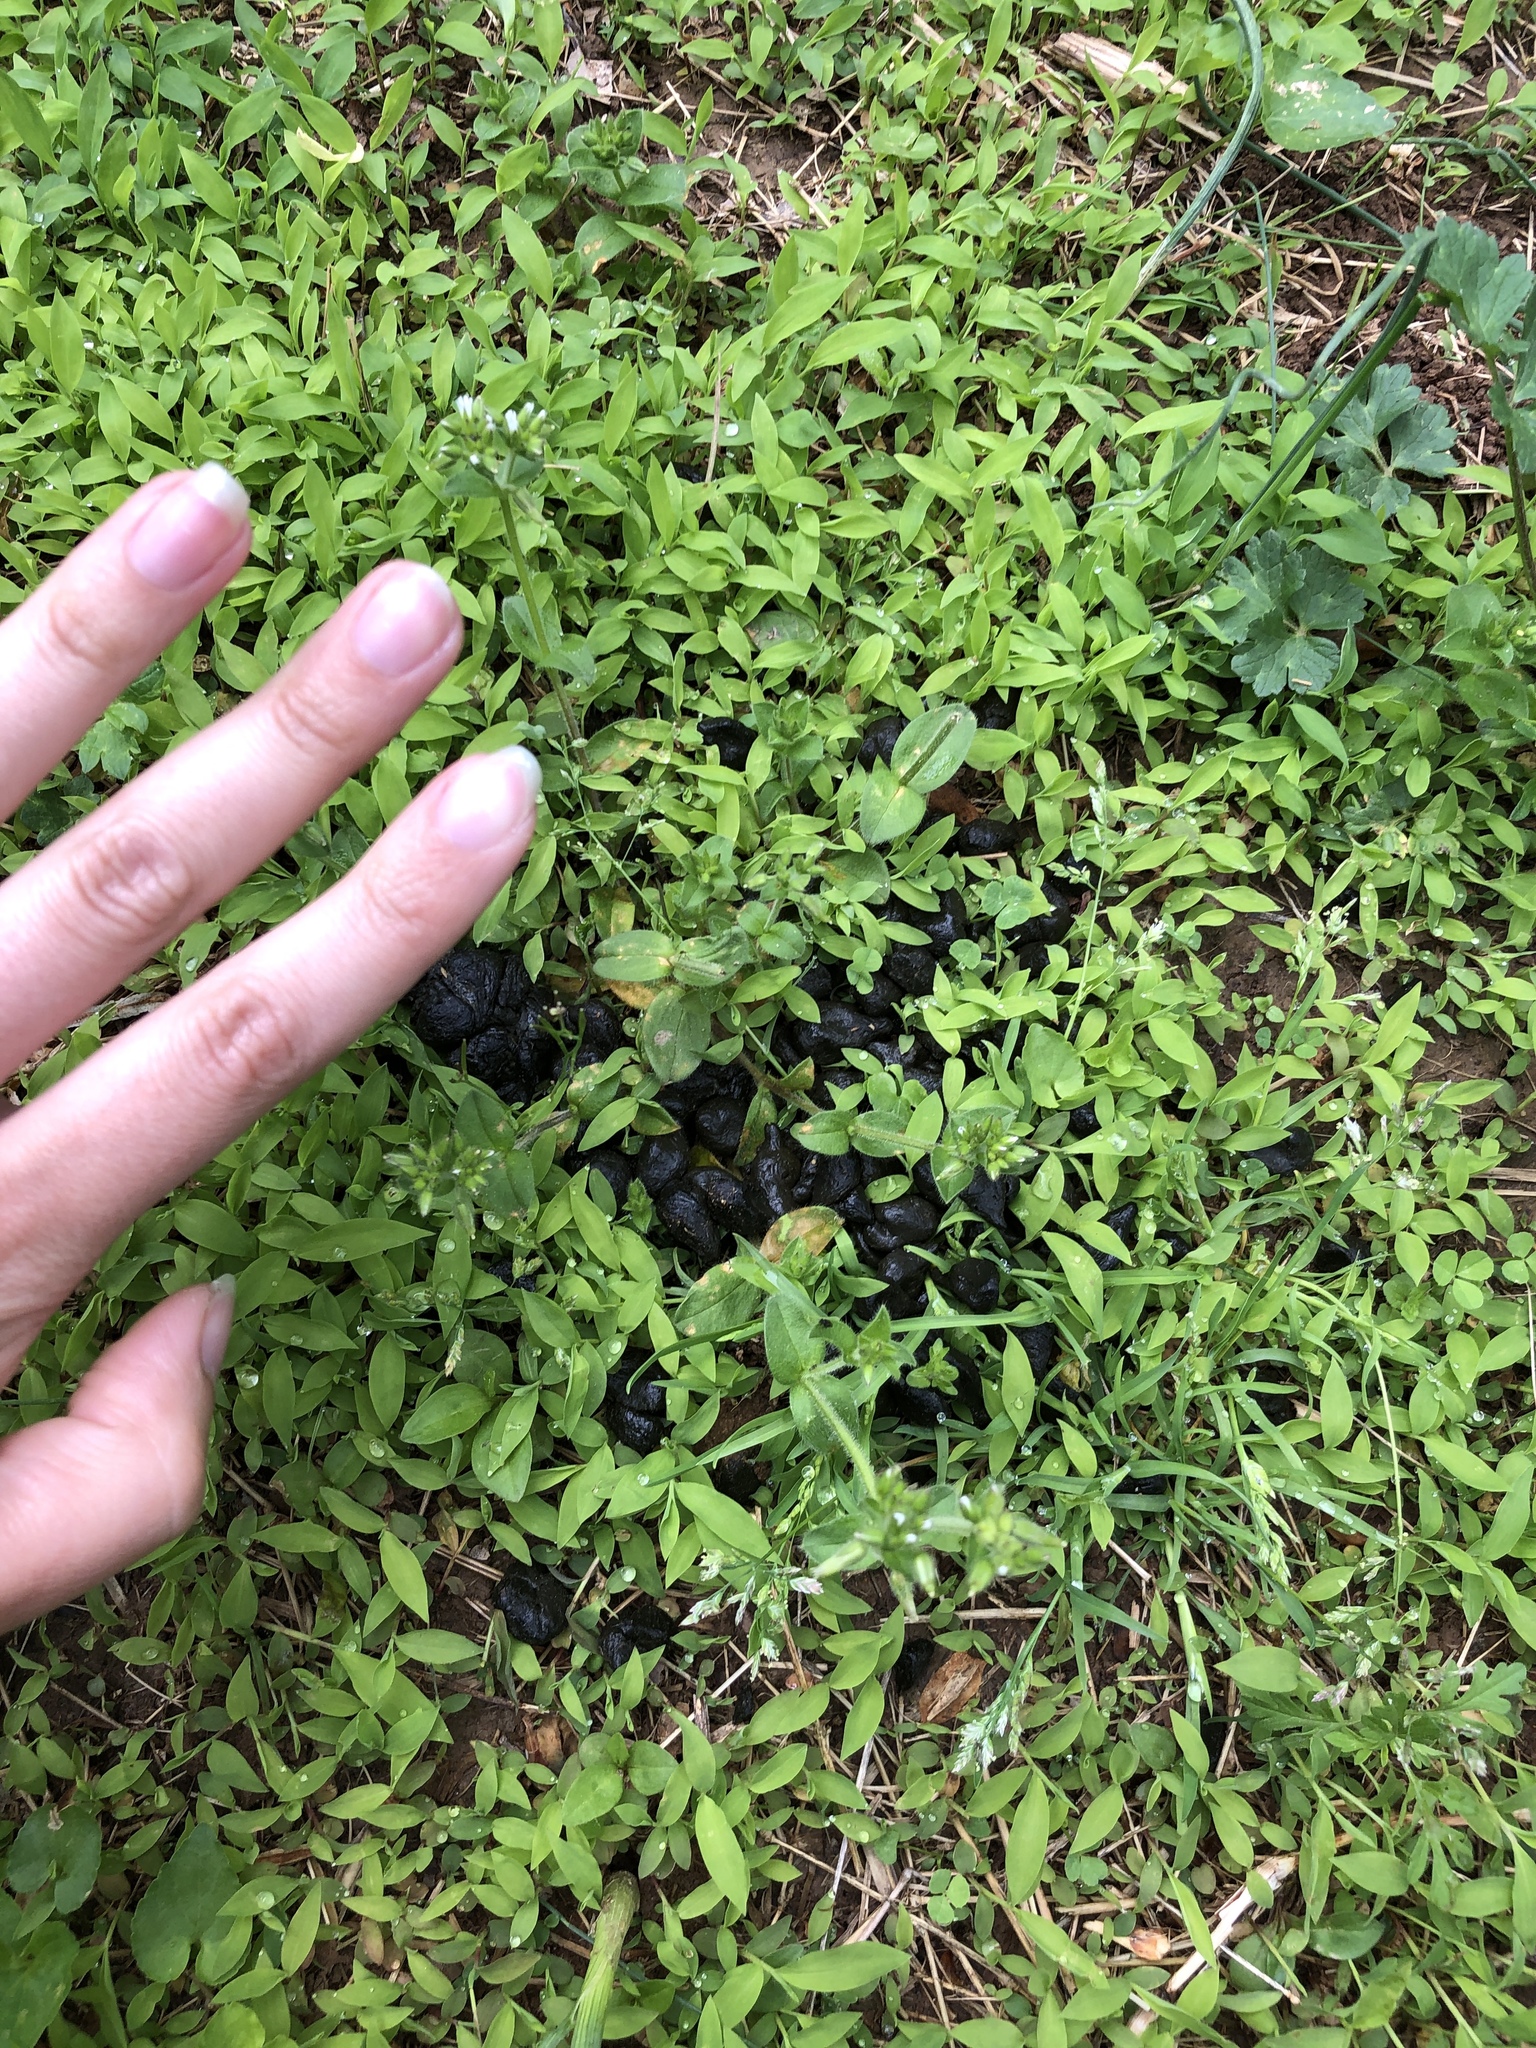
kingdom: Animalia
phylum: Chordata
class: Mammalia
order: Artiodactyla
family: Cervidae
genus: Odocoileus
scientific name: Odocoileus virginianus
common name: White-tailed deer
